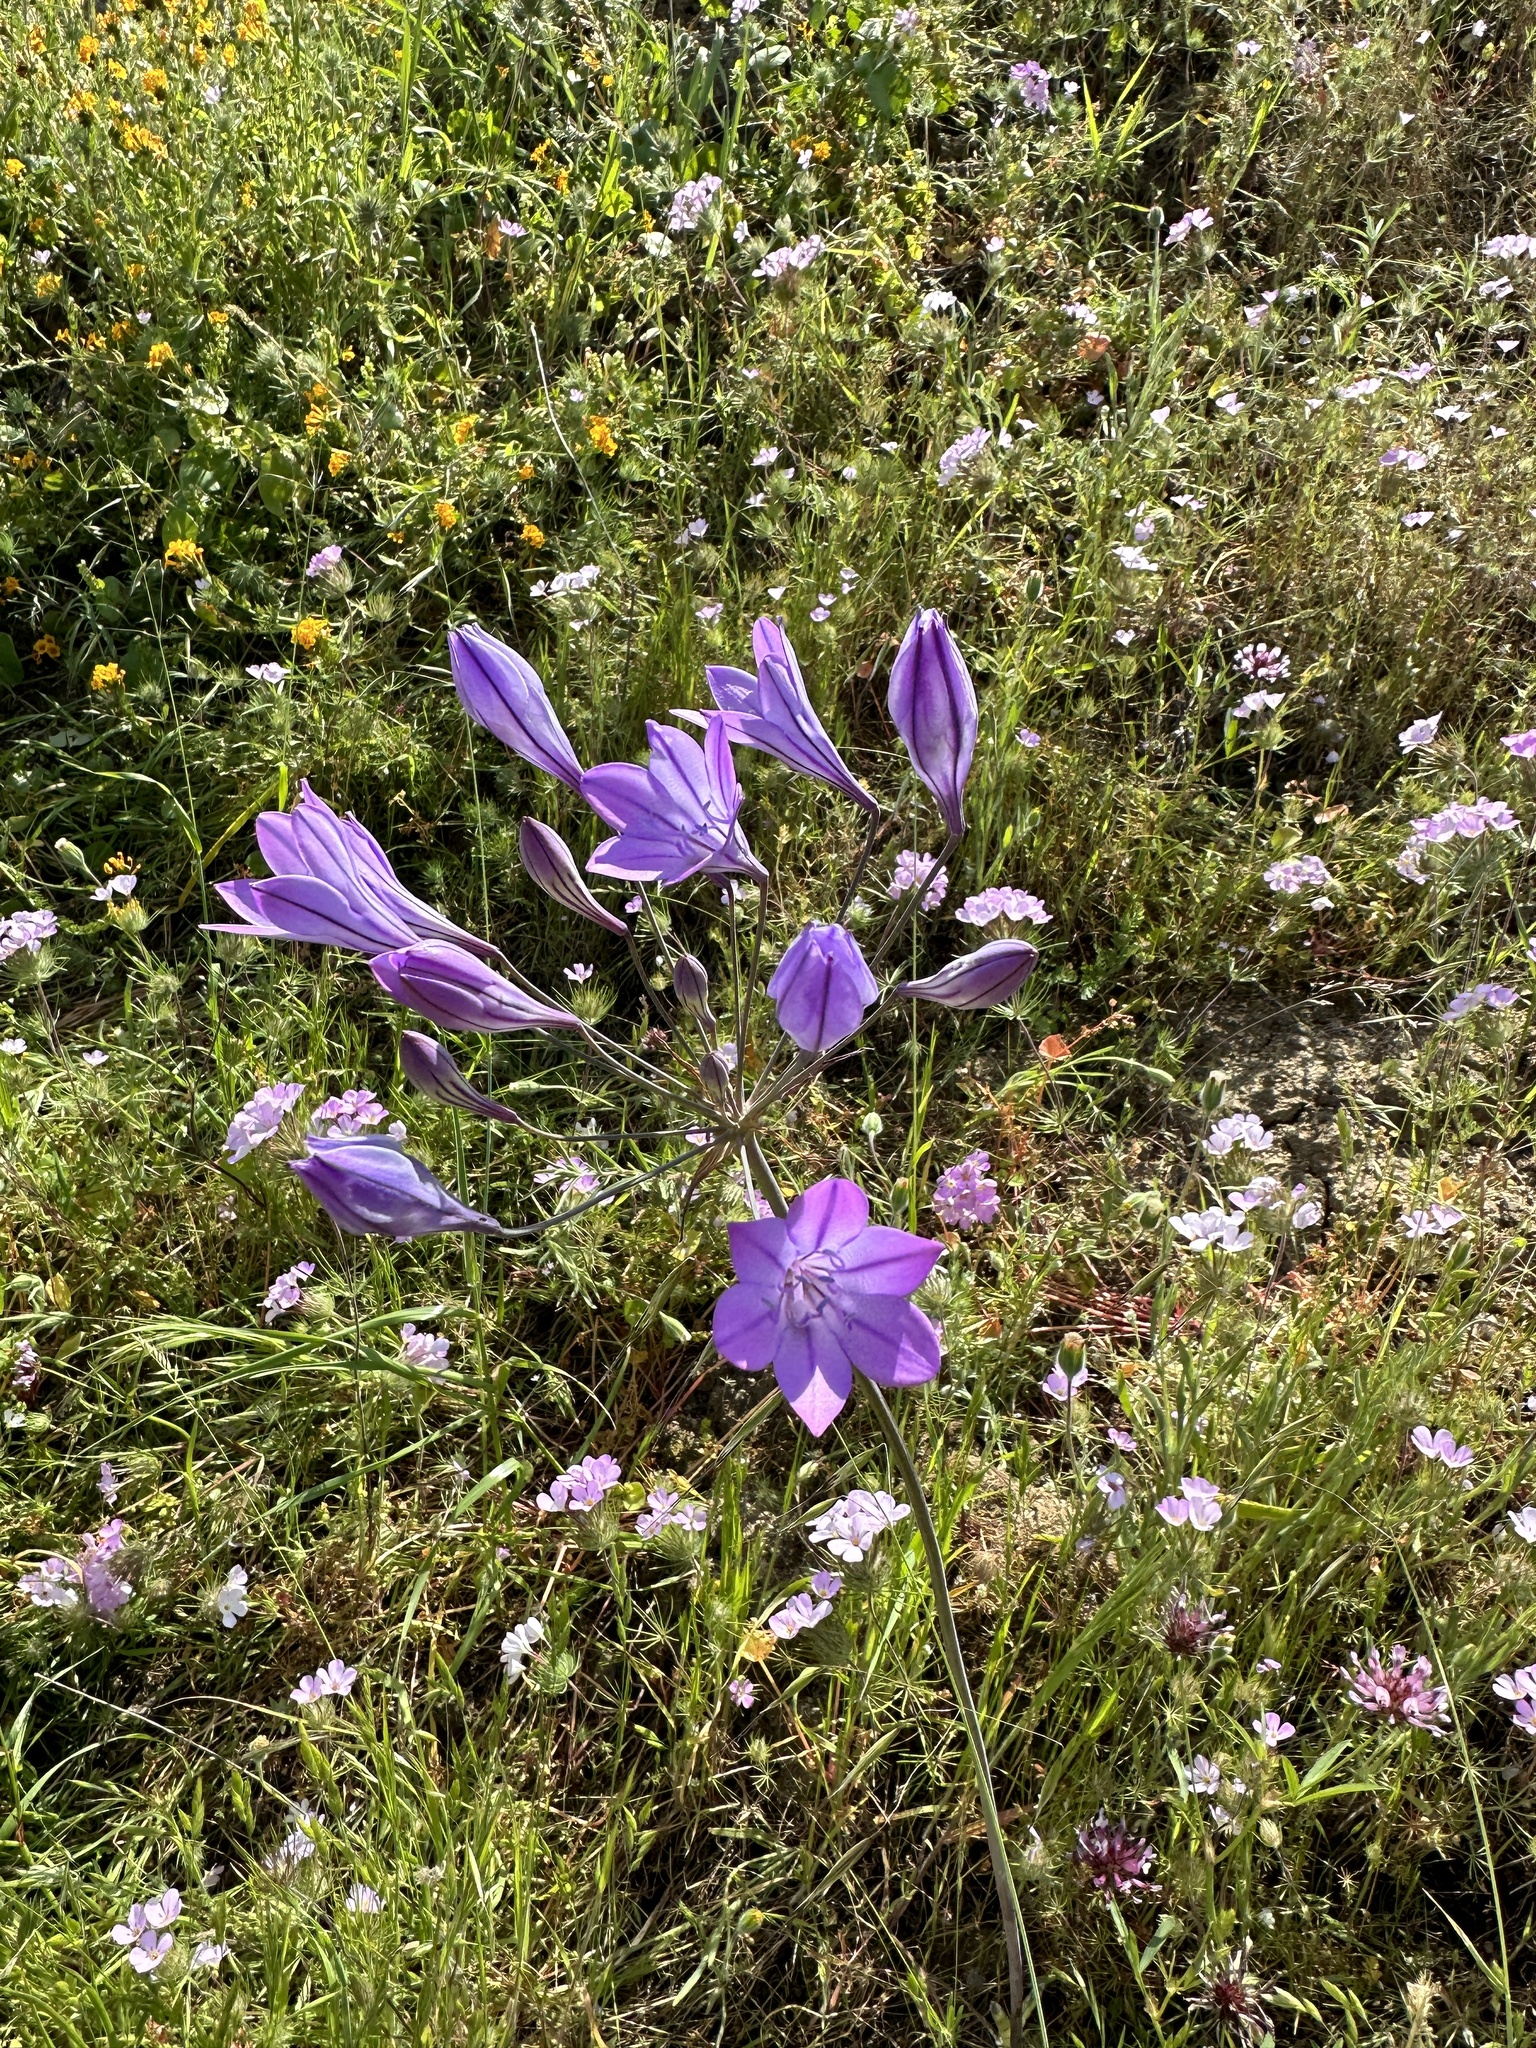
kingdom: Plantae
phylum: Tracheophyta
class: Liliopsida
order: Asparagales
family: Asparagaceae
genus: Triteleia
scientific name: Triteleia laxa
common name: Triplet-lily
